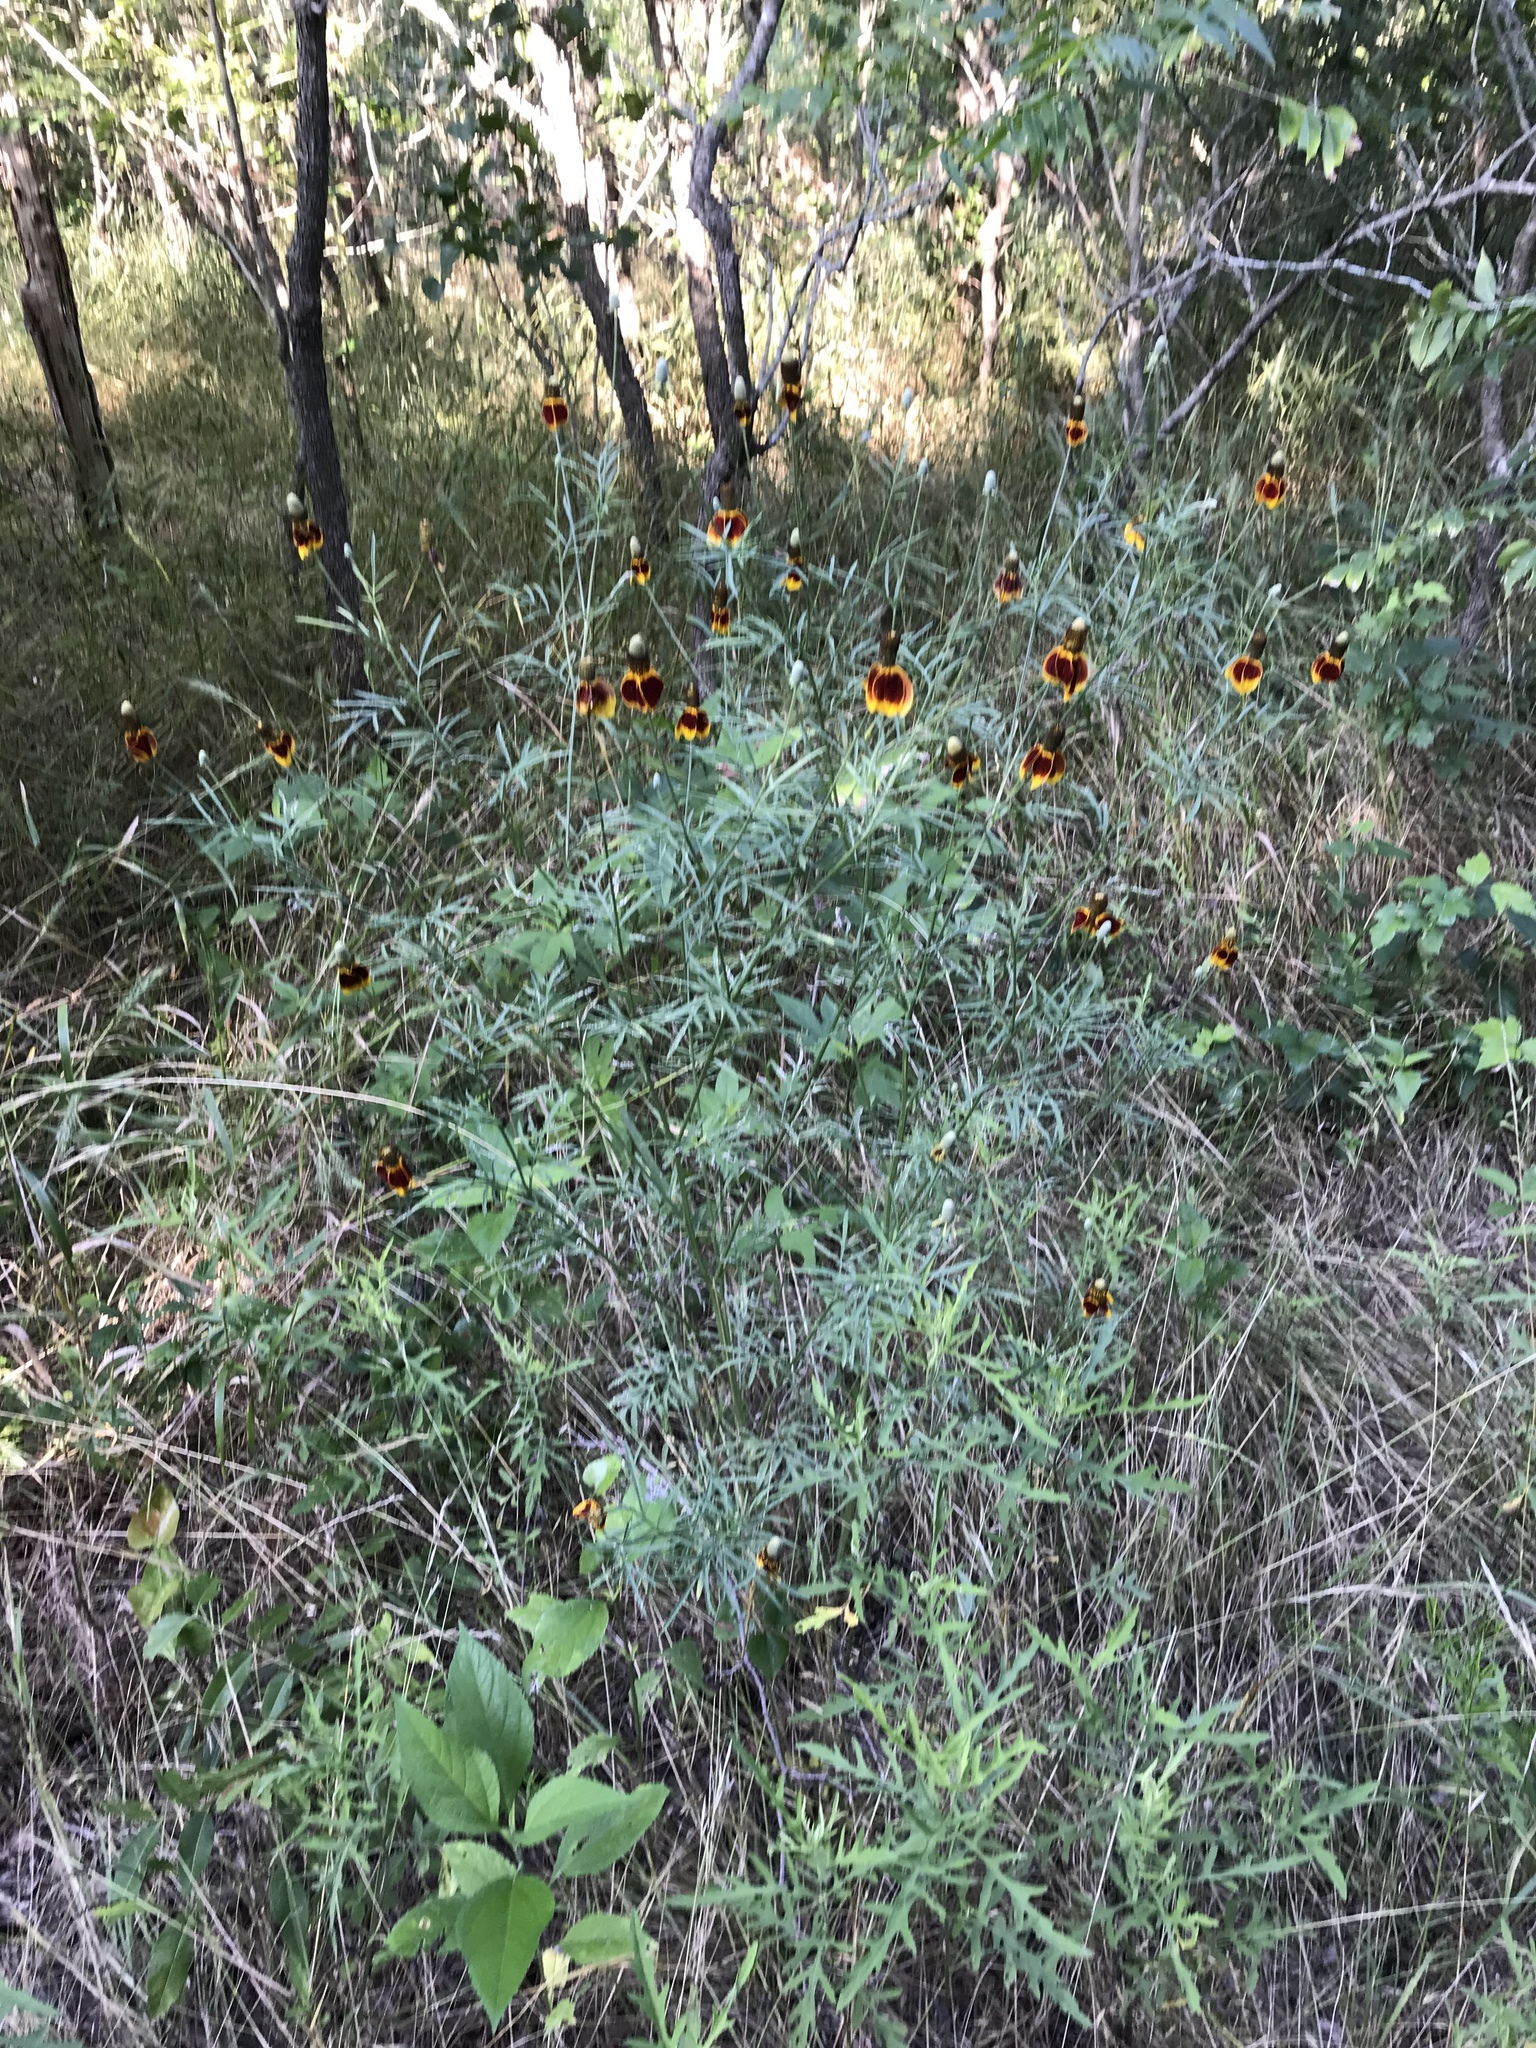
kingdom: Plantae
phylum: Tracheophyta
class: Magnoliopsida
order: Asterales
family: Asteraceae
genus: Ratibida
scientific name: Ratibida columnifera
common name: Prairie coneflower
